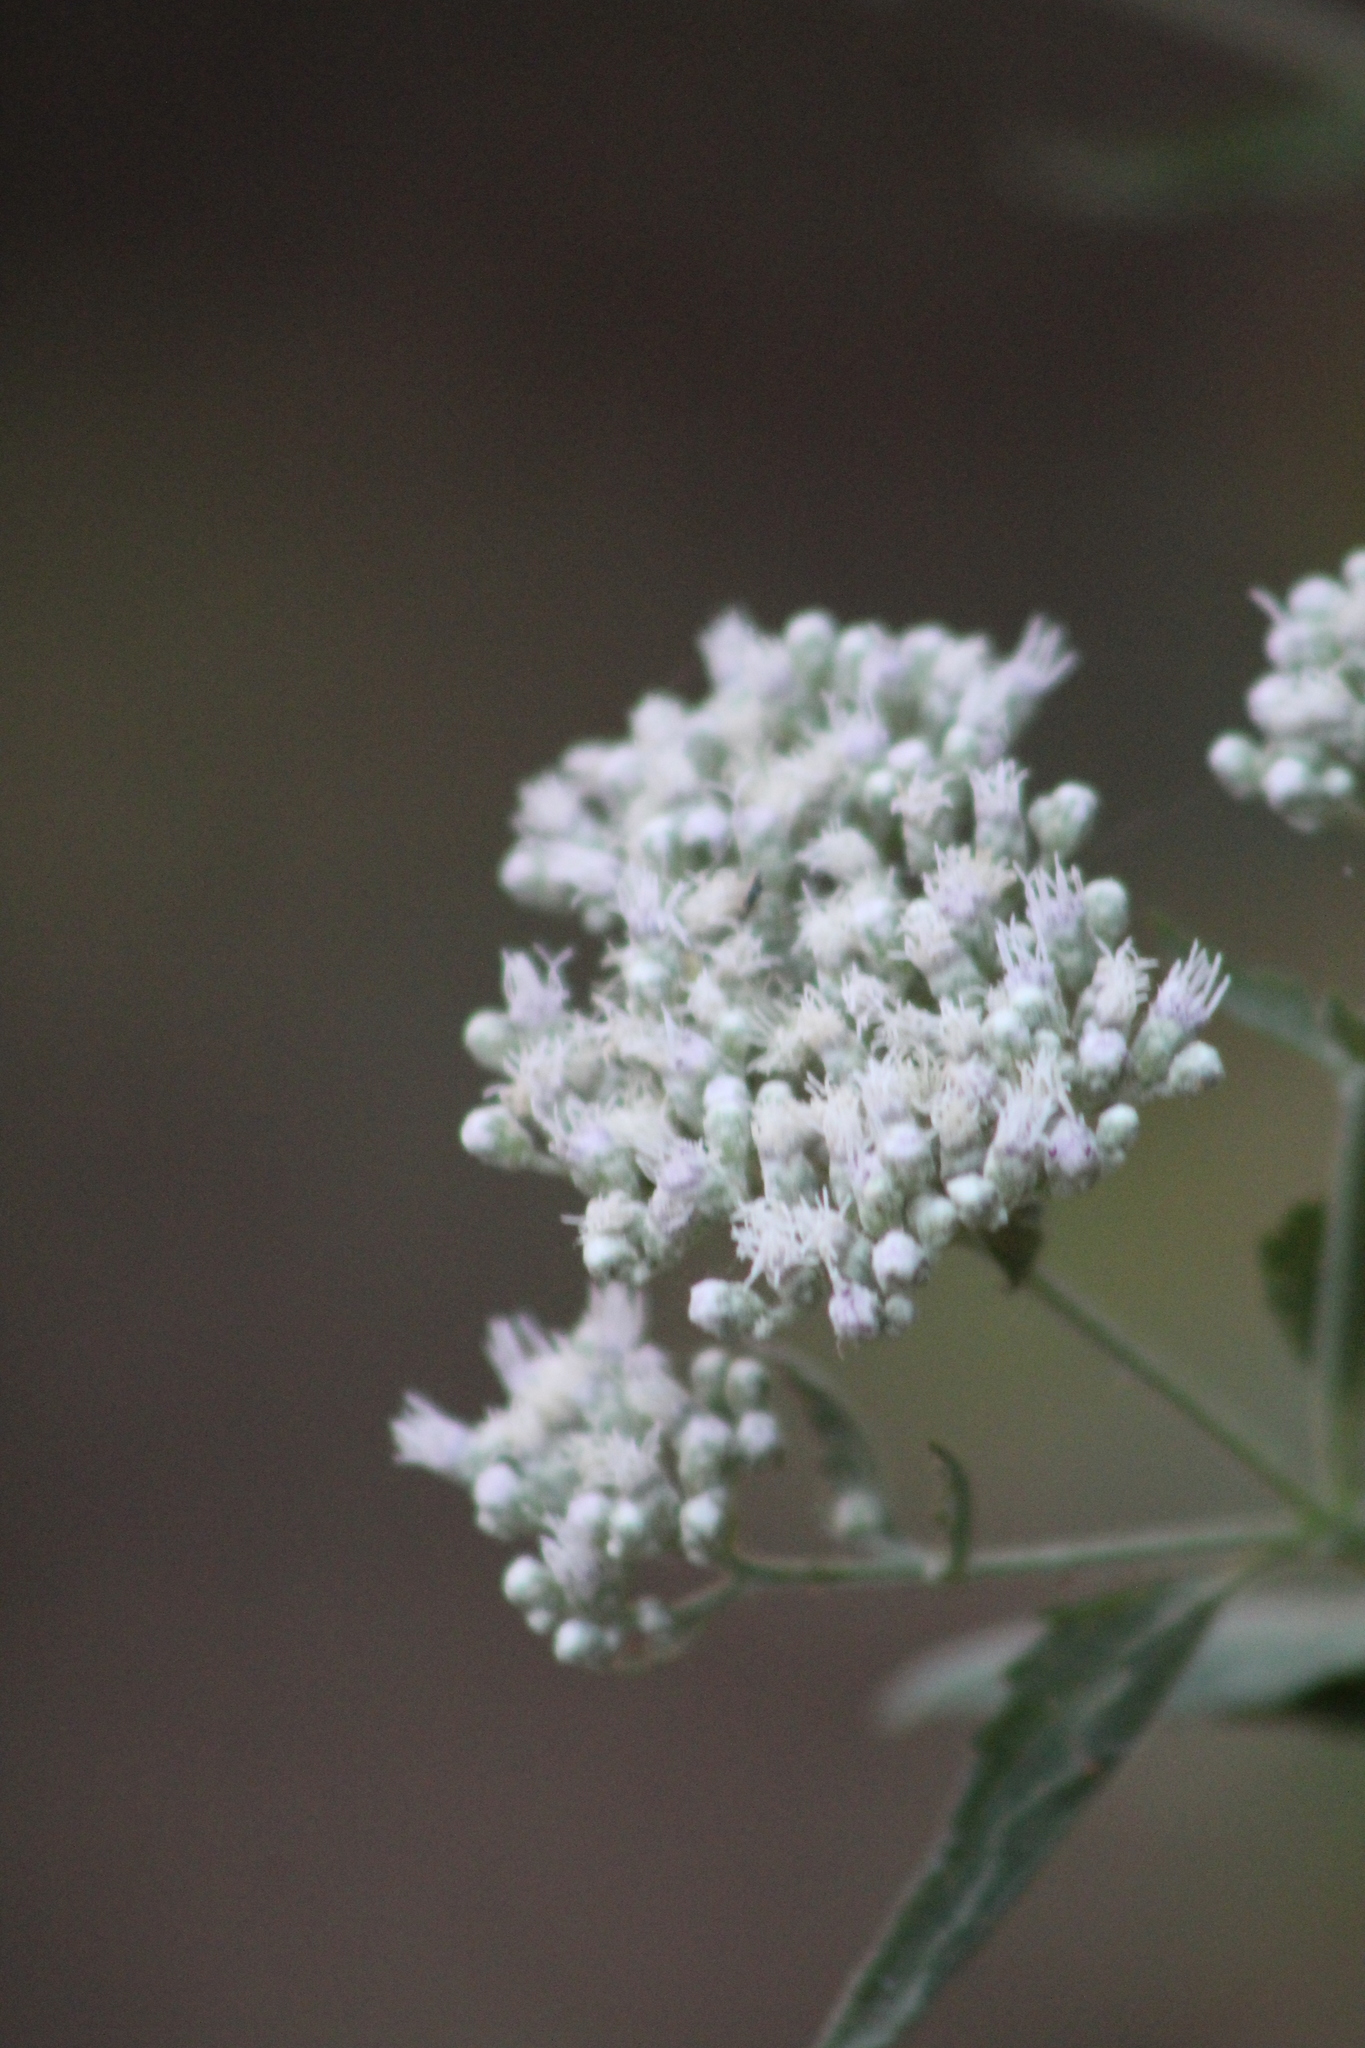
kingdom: Plantae
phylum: Tracheophyta
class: Magnoliopsida
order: Asterales
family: Asteraceae
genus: Eupatorium
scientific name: Eupatorium serotinum
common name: Late boneset
